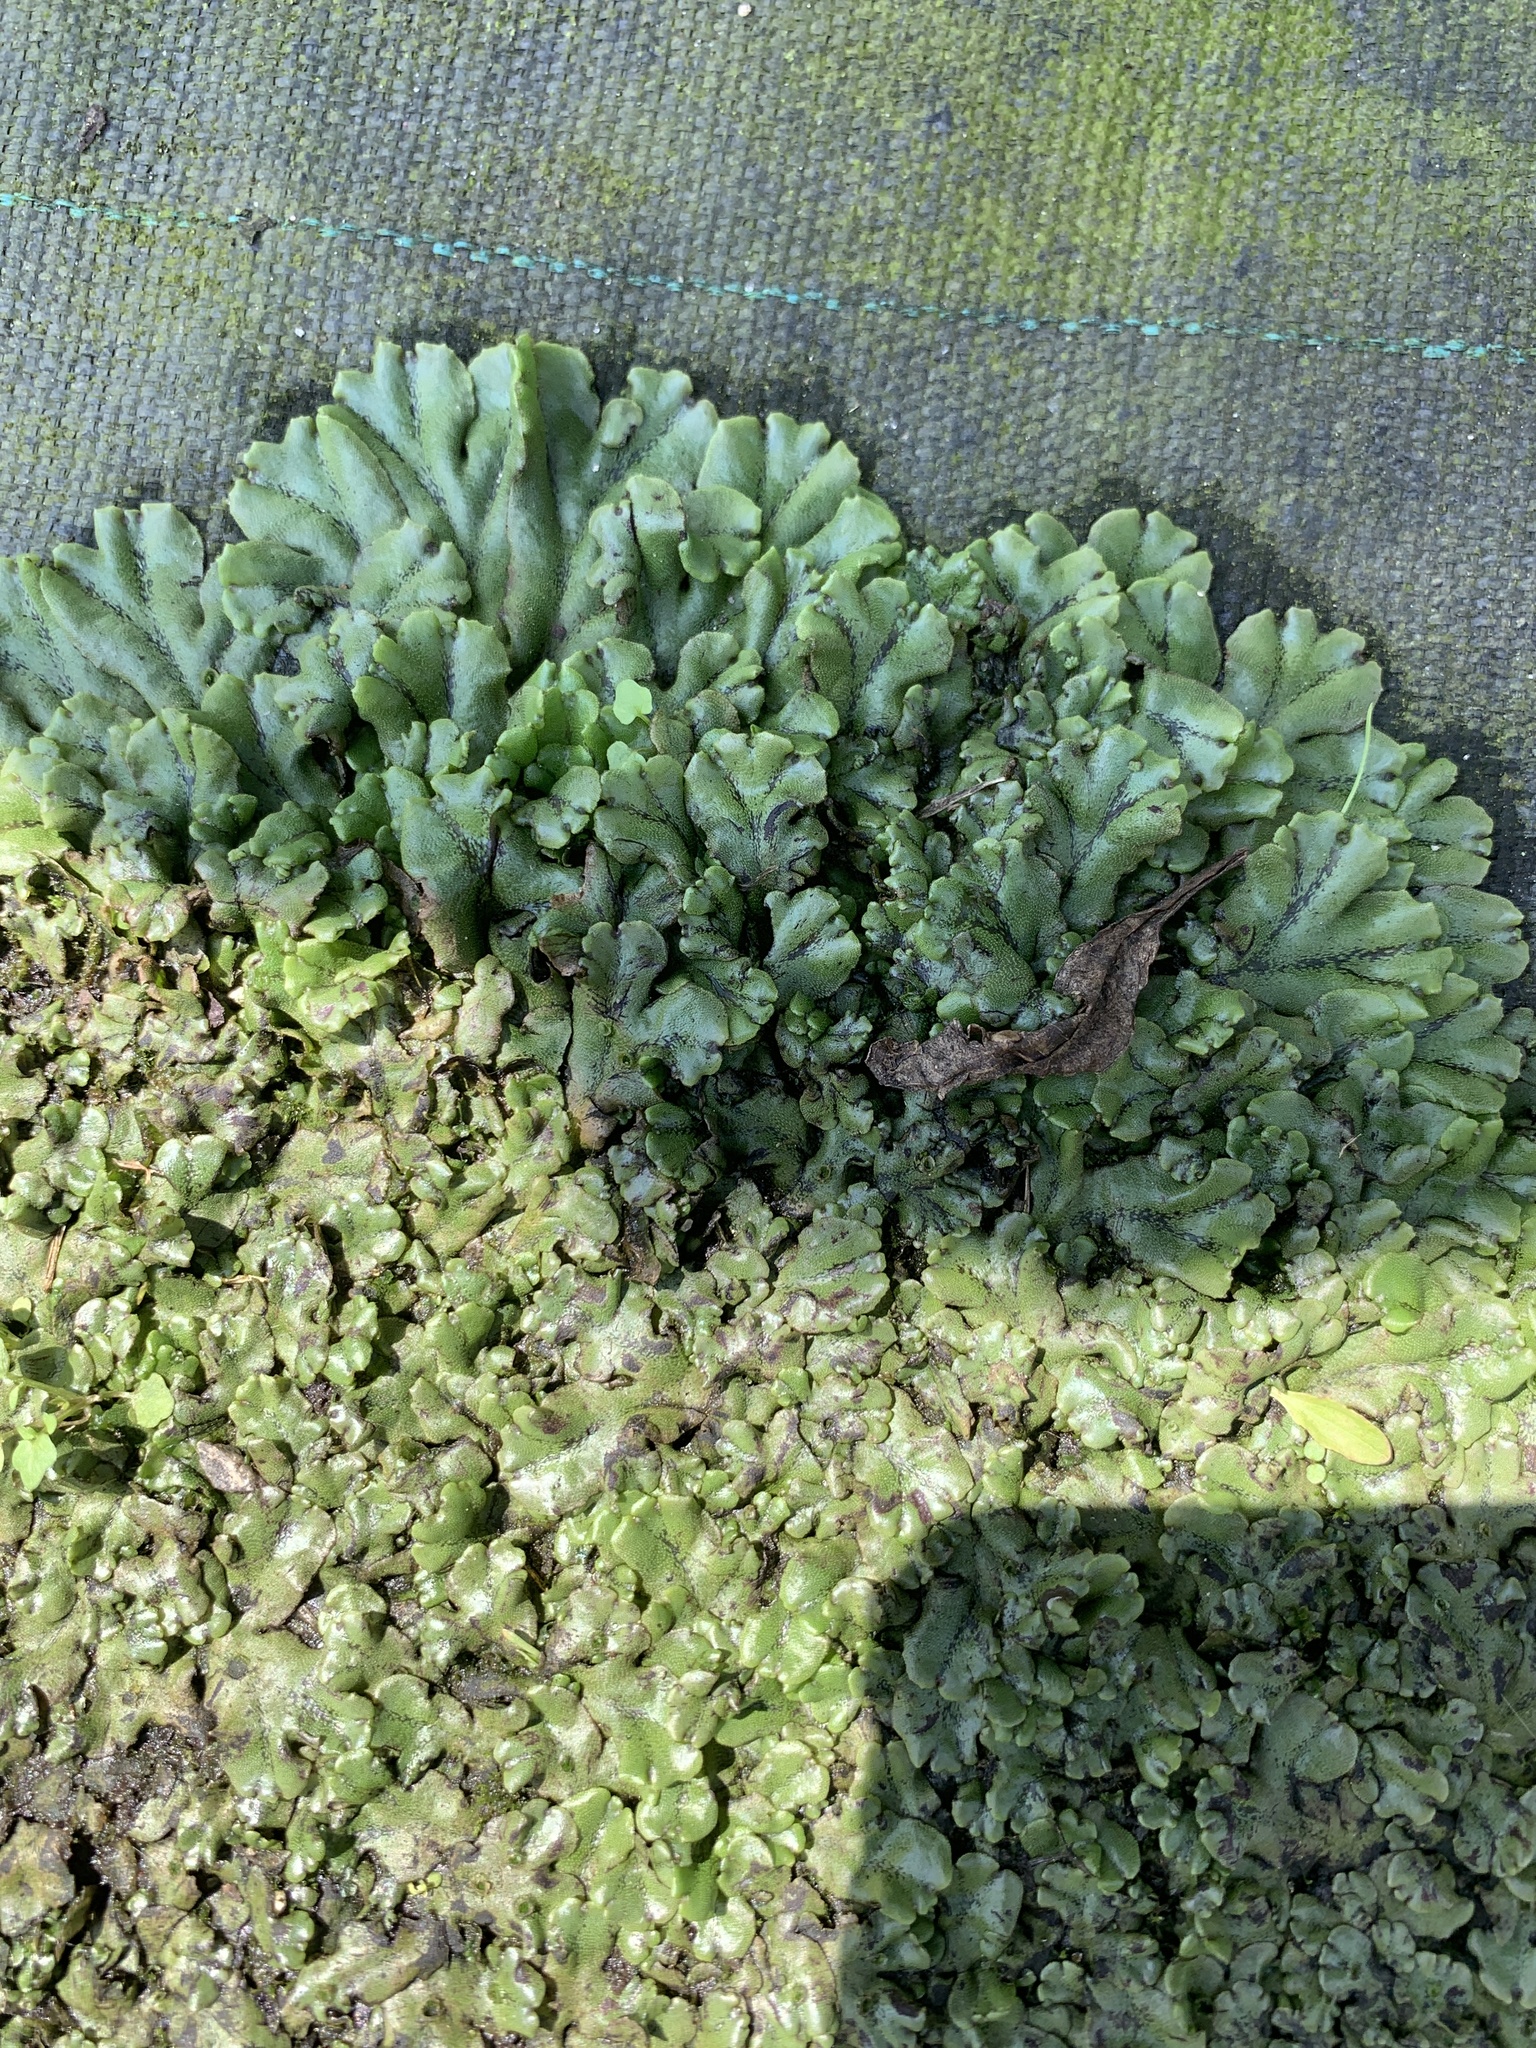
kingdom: Plantae
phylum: Marchantiophyta
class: Marchantiopsida
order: Marchantiales
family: Marchantiaceae
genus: Marchantia
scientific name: Marchantia polymorpha
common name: Common liverwort
